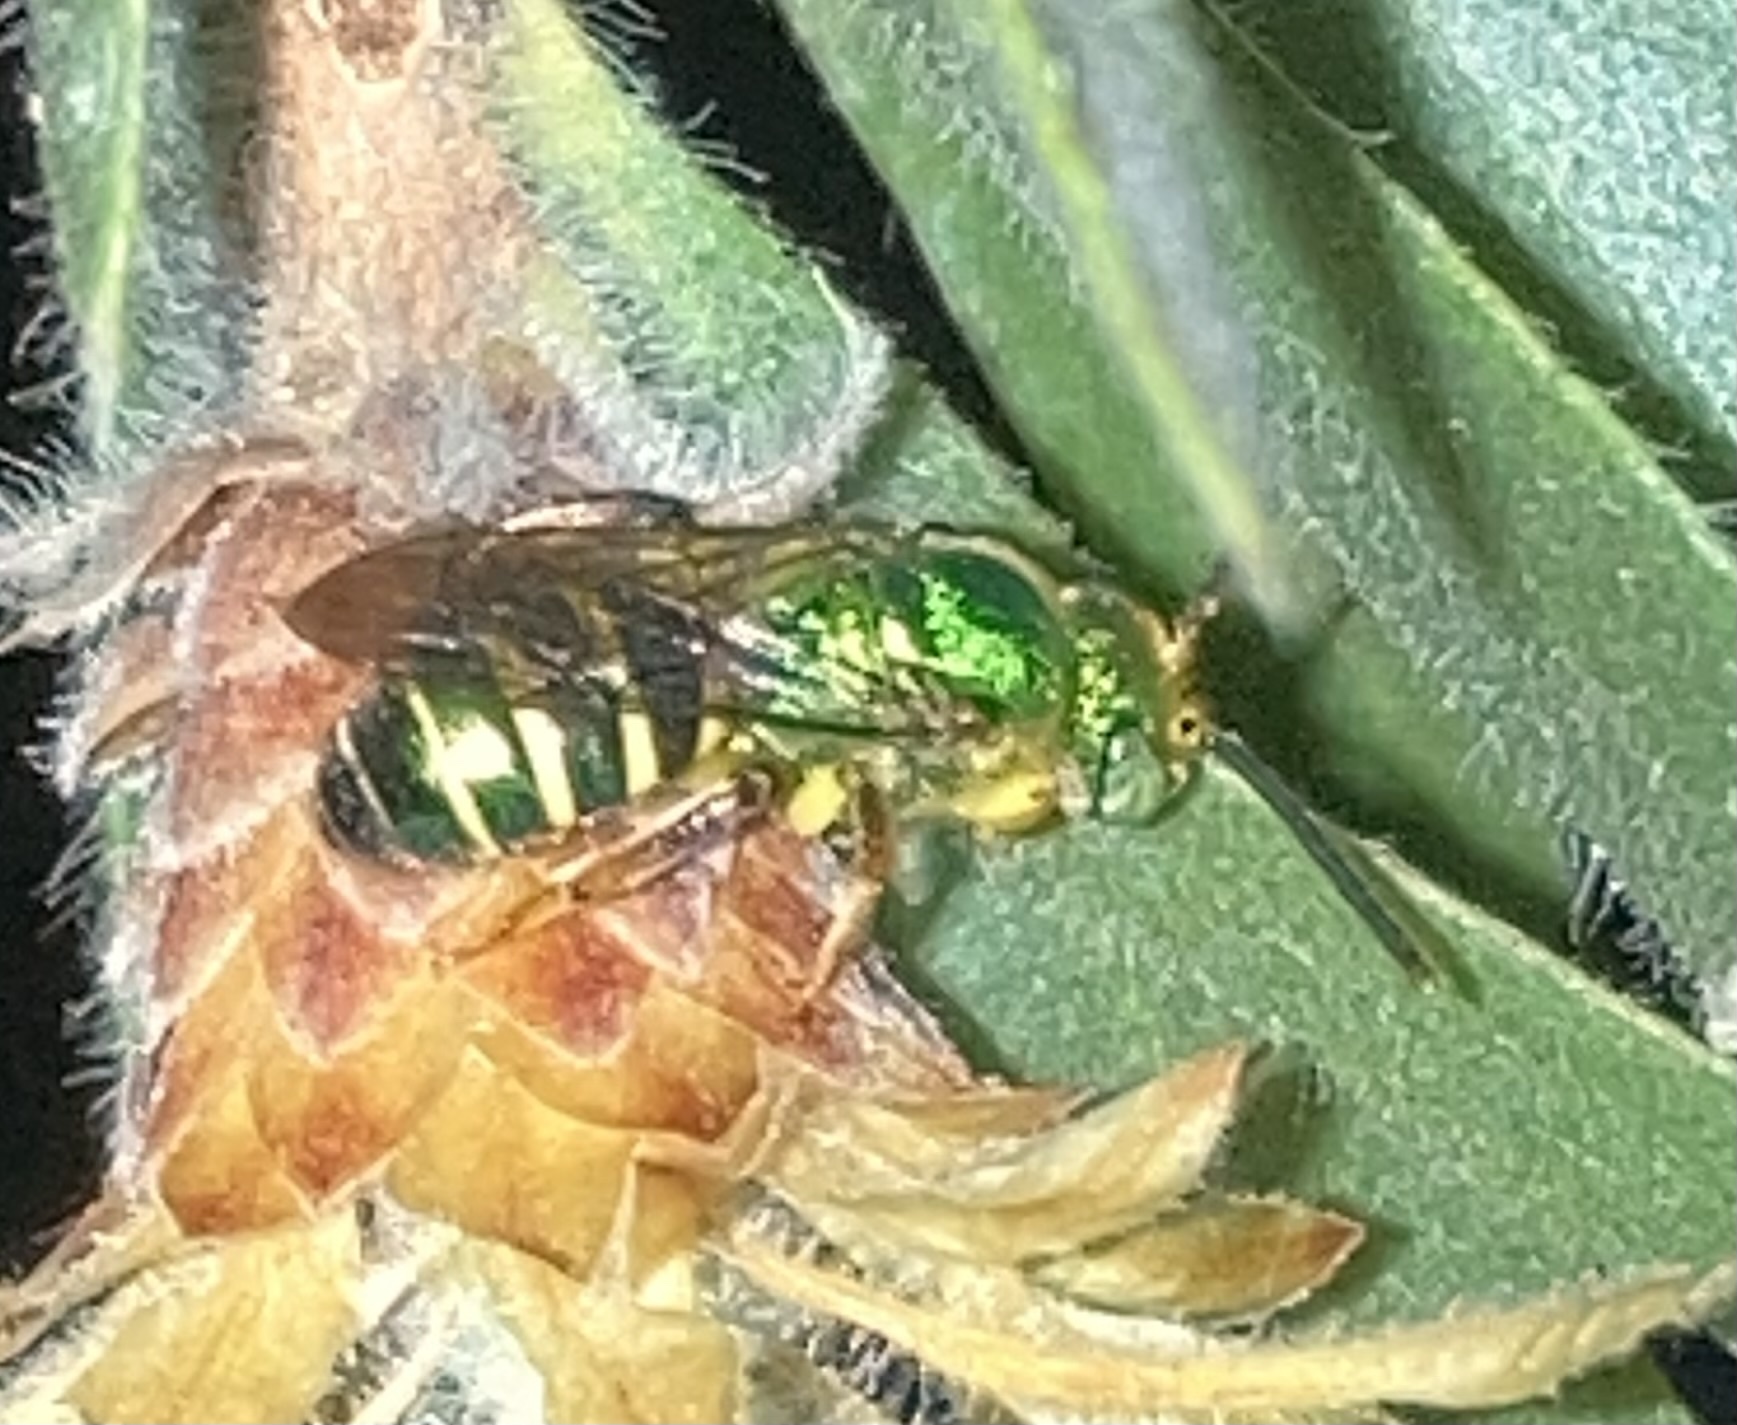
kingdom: Animalia
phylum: Arthropoda
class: Insecta
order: Hymenoptera
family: Halictidae
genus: Agapostemon
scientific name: Agapostemon poeyi
